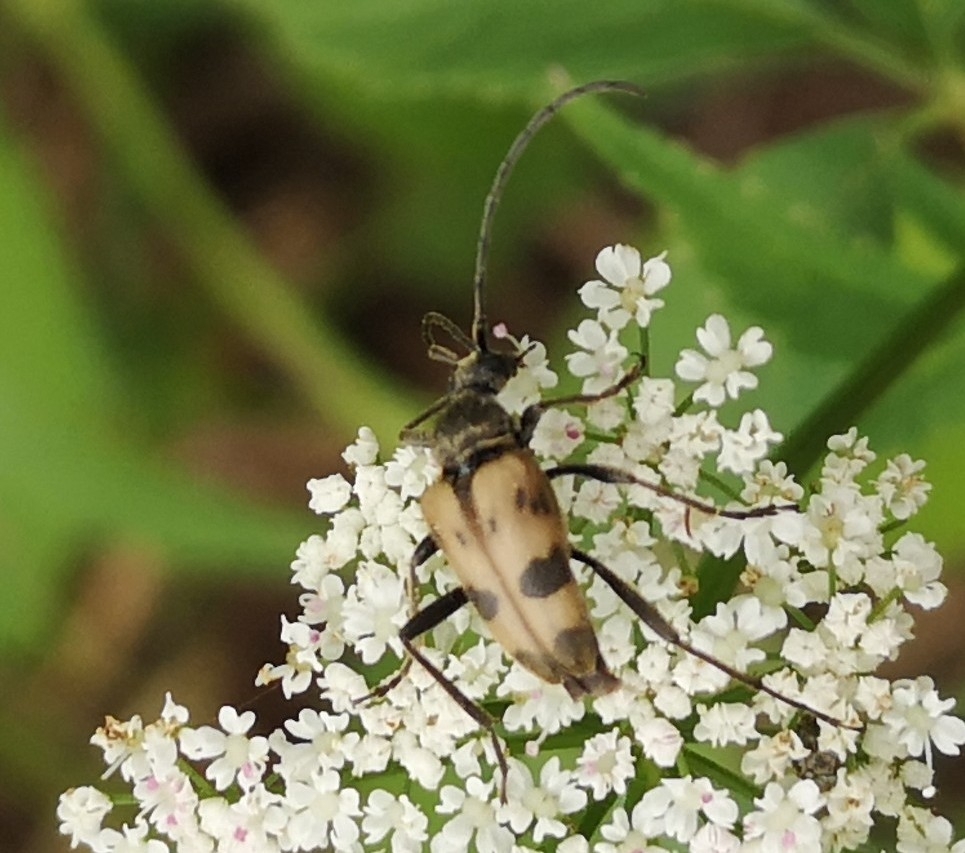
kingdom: Animalia
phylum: Arthropoda
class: Insecta
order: Coleoptera
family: Cerambycidae
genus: Pachytodes
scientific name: Pachytodes cerambyciformis
